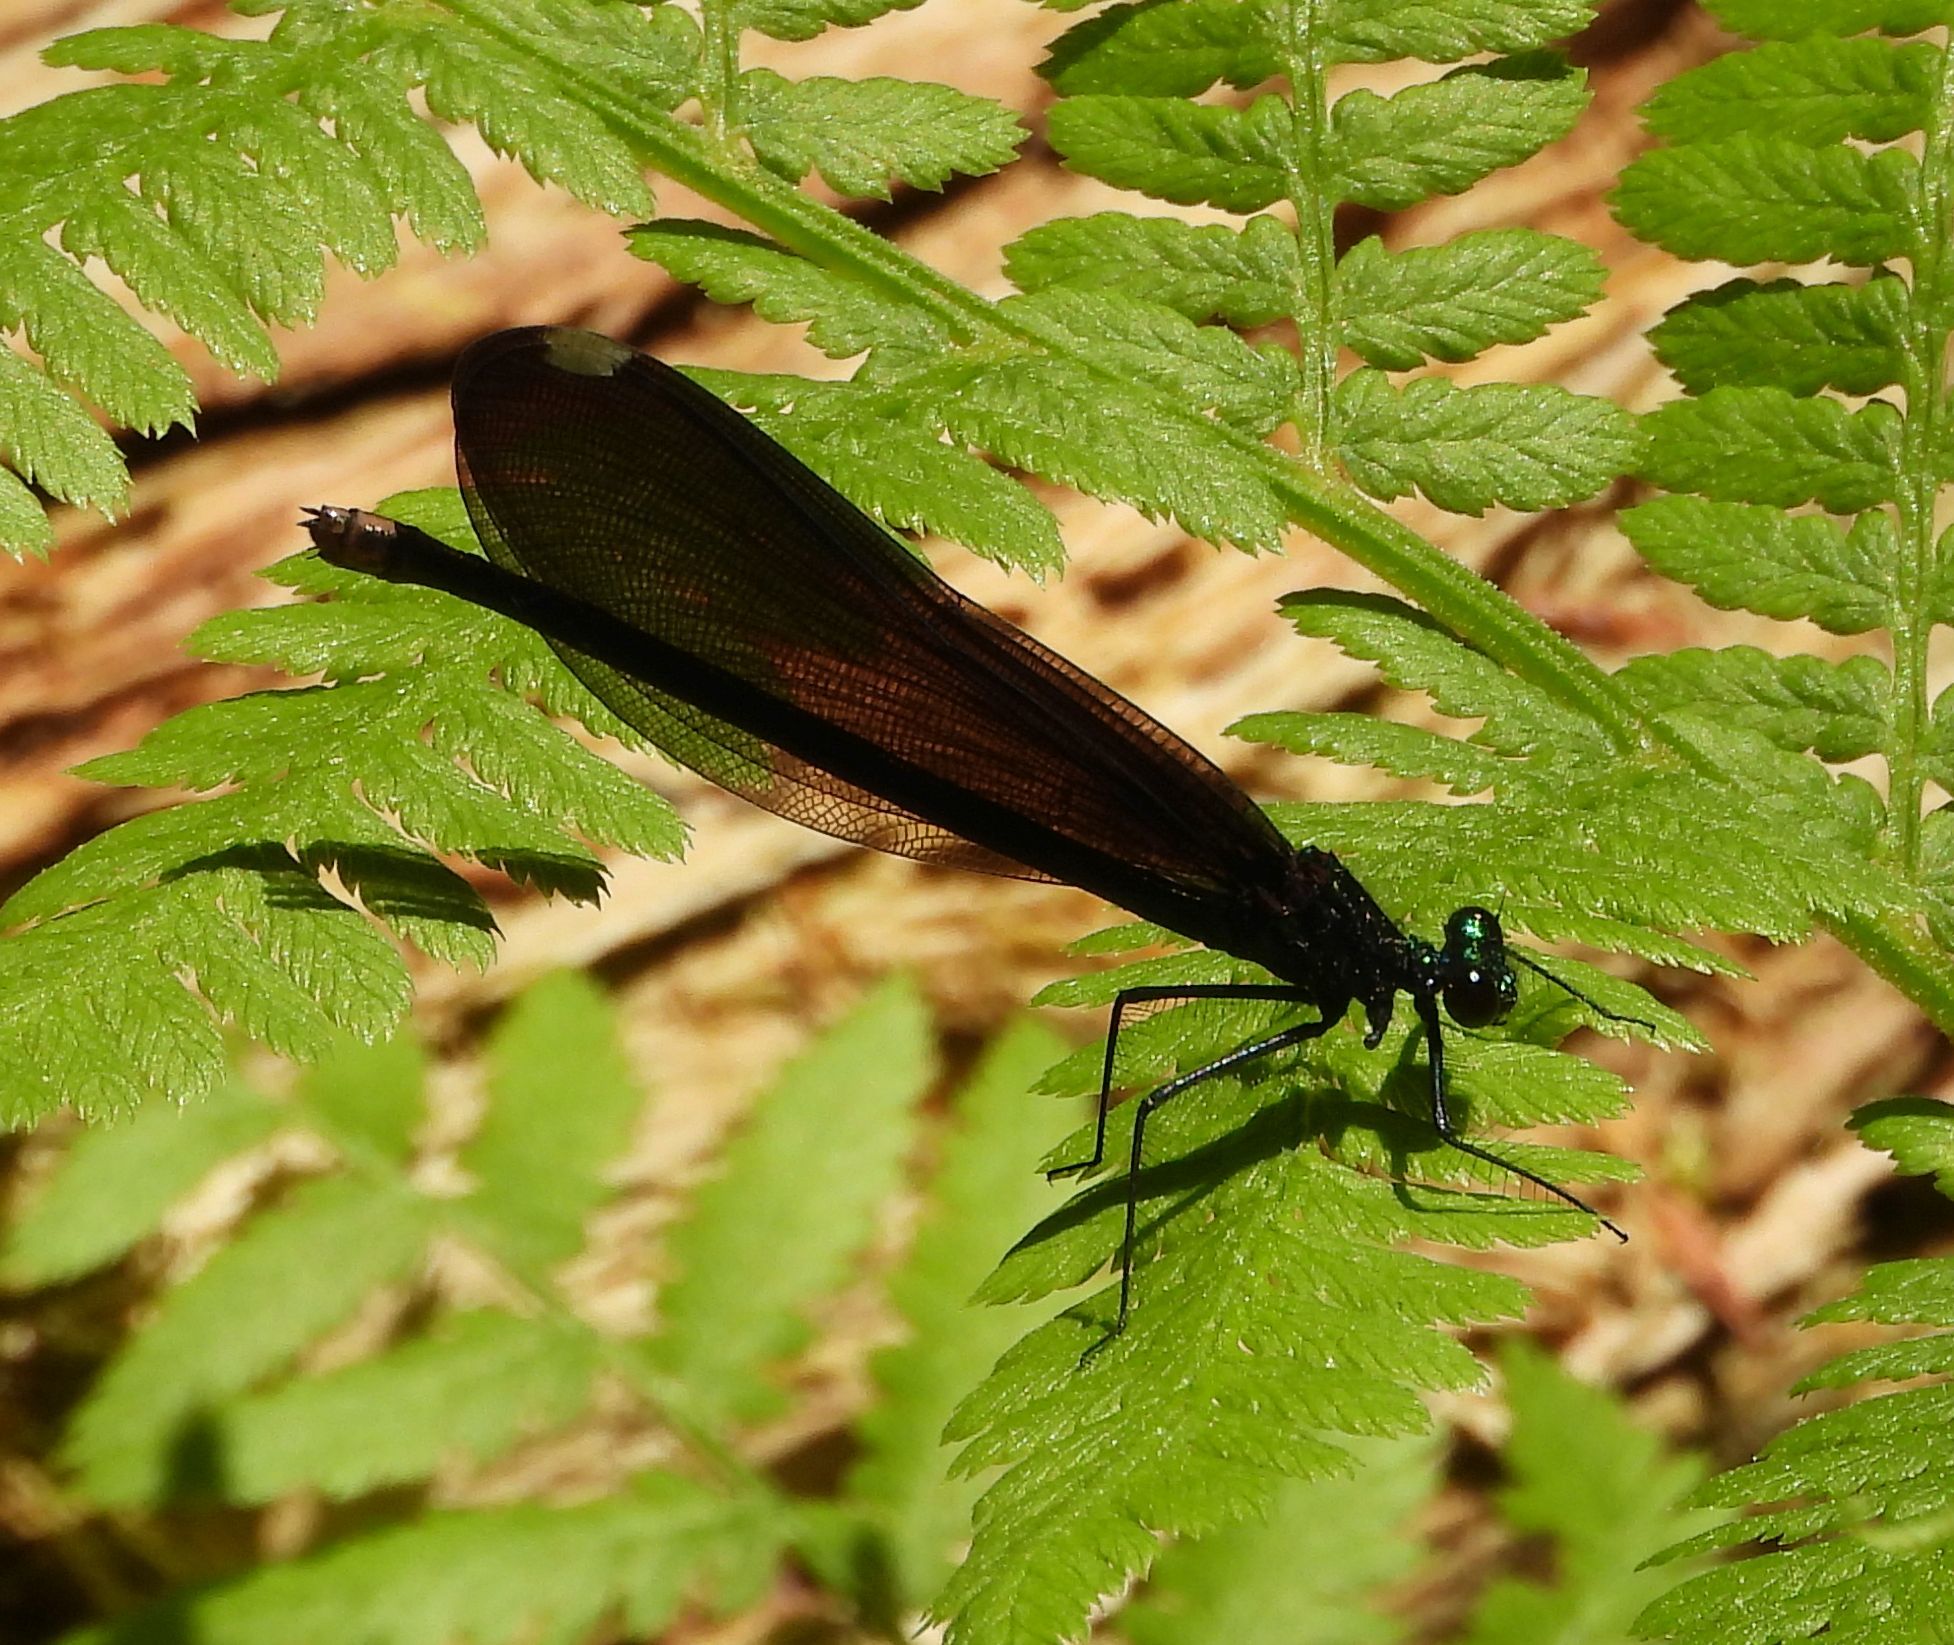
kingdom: Animalia
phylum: Arthropoda
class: Insecta
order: Odonata
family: Calopterygidae
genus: Calopteryx
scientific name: Calopteryx maculata
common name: Ebony jewelwing
